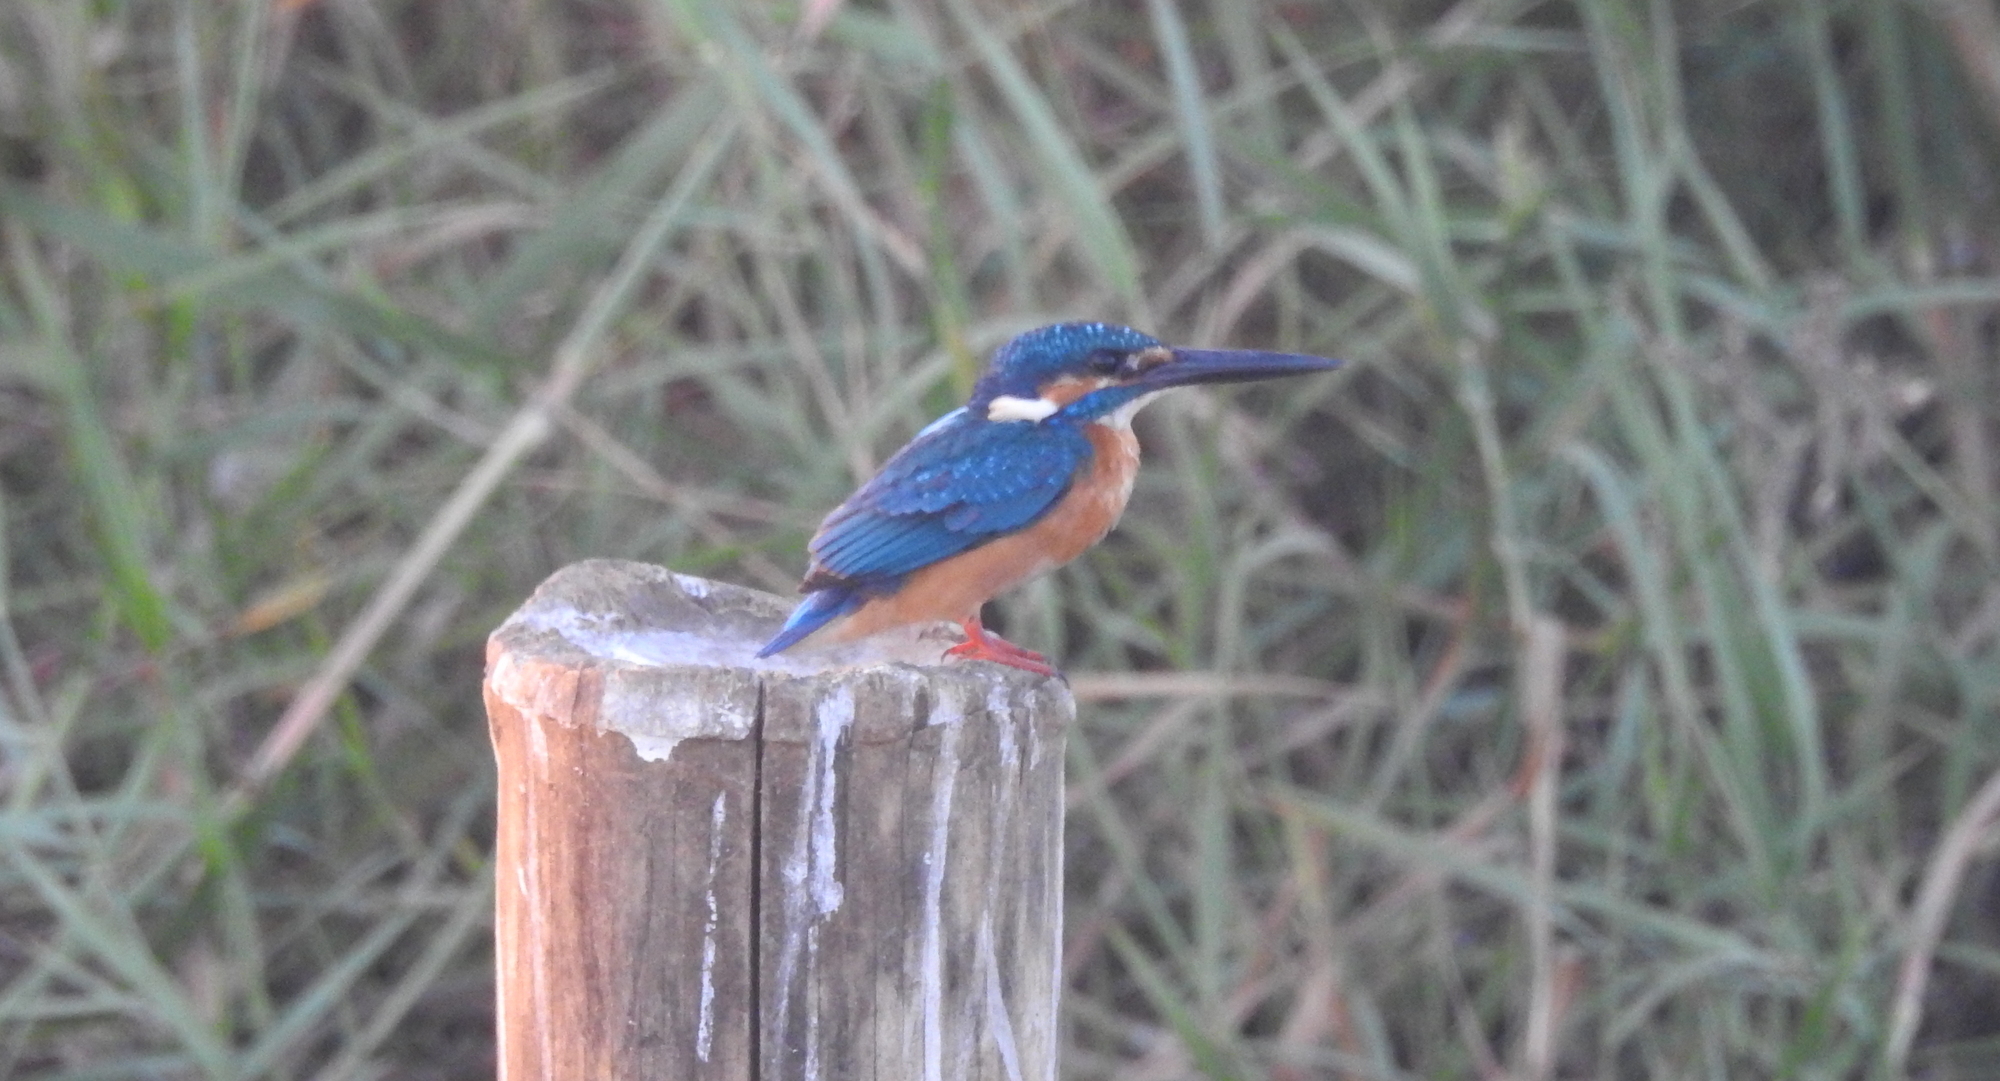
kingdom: Animalia
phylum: Chordata
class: Aves
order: Coraciiformes
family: Alcedinidae
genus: Alcedo
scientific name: Alcedo atthis
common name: Common kingfisher
